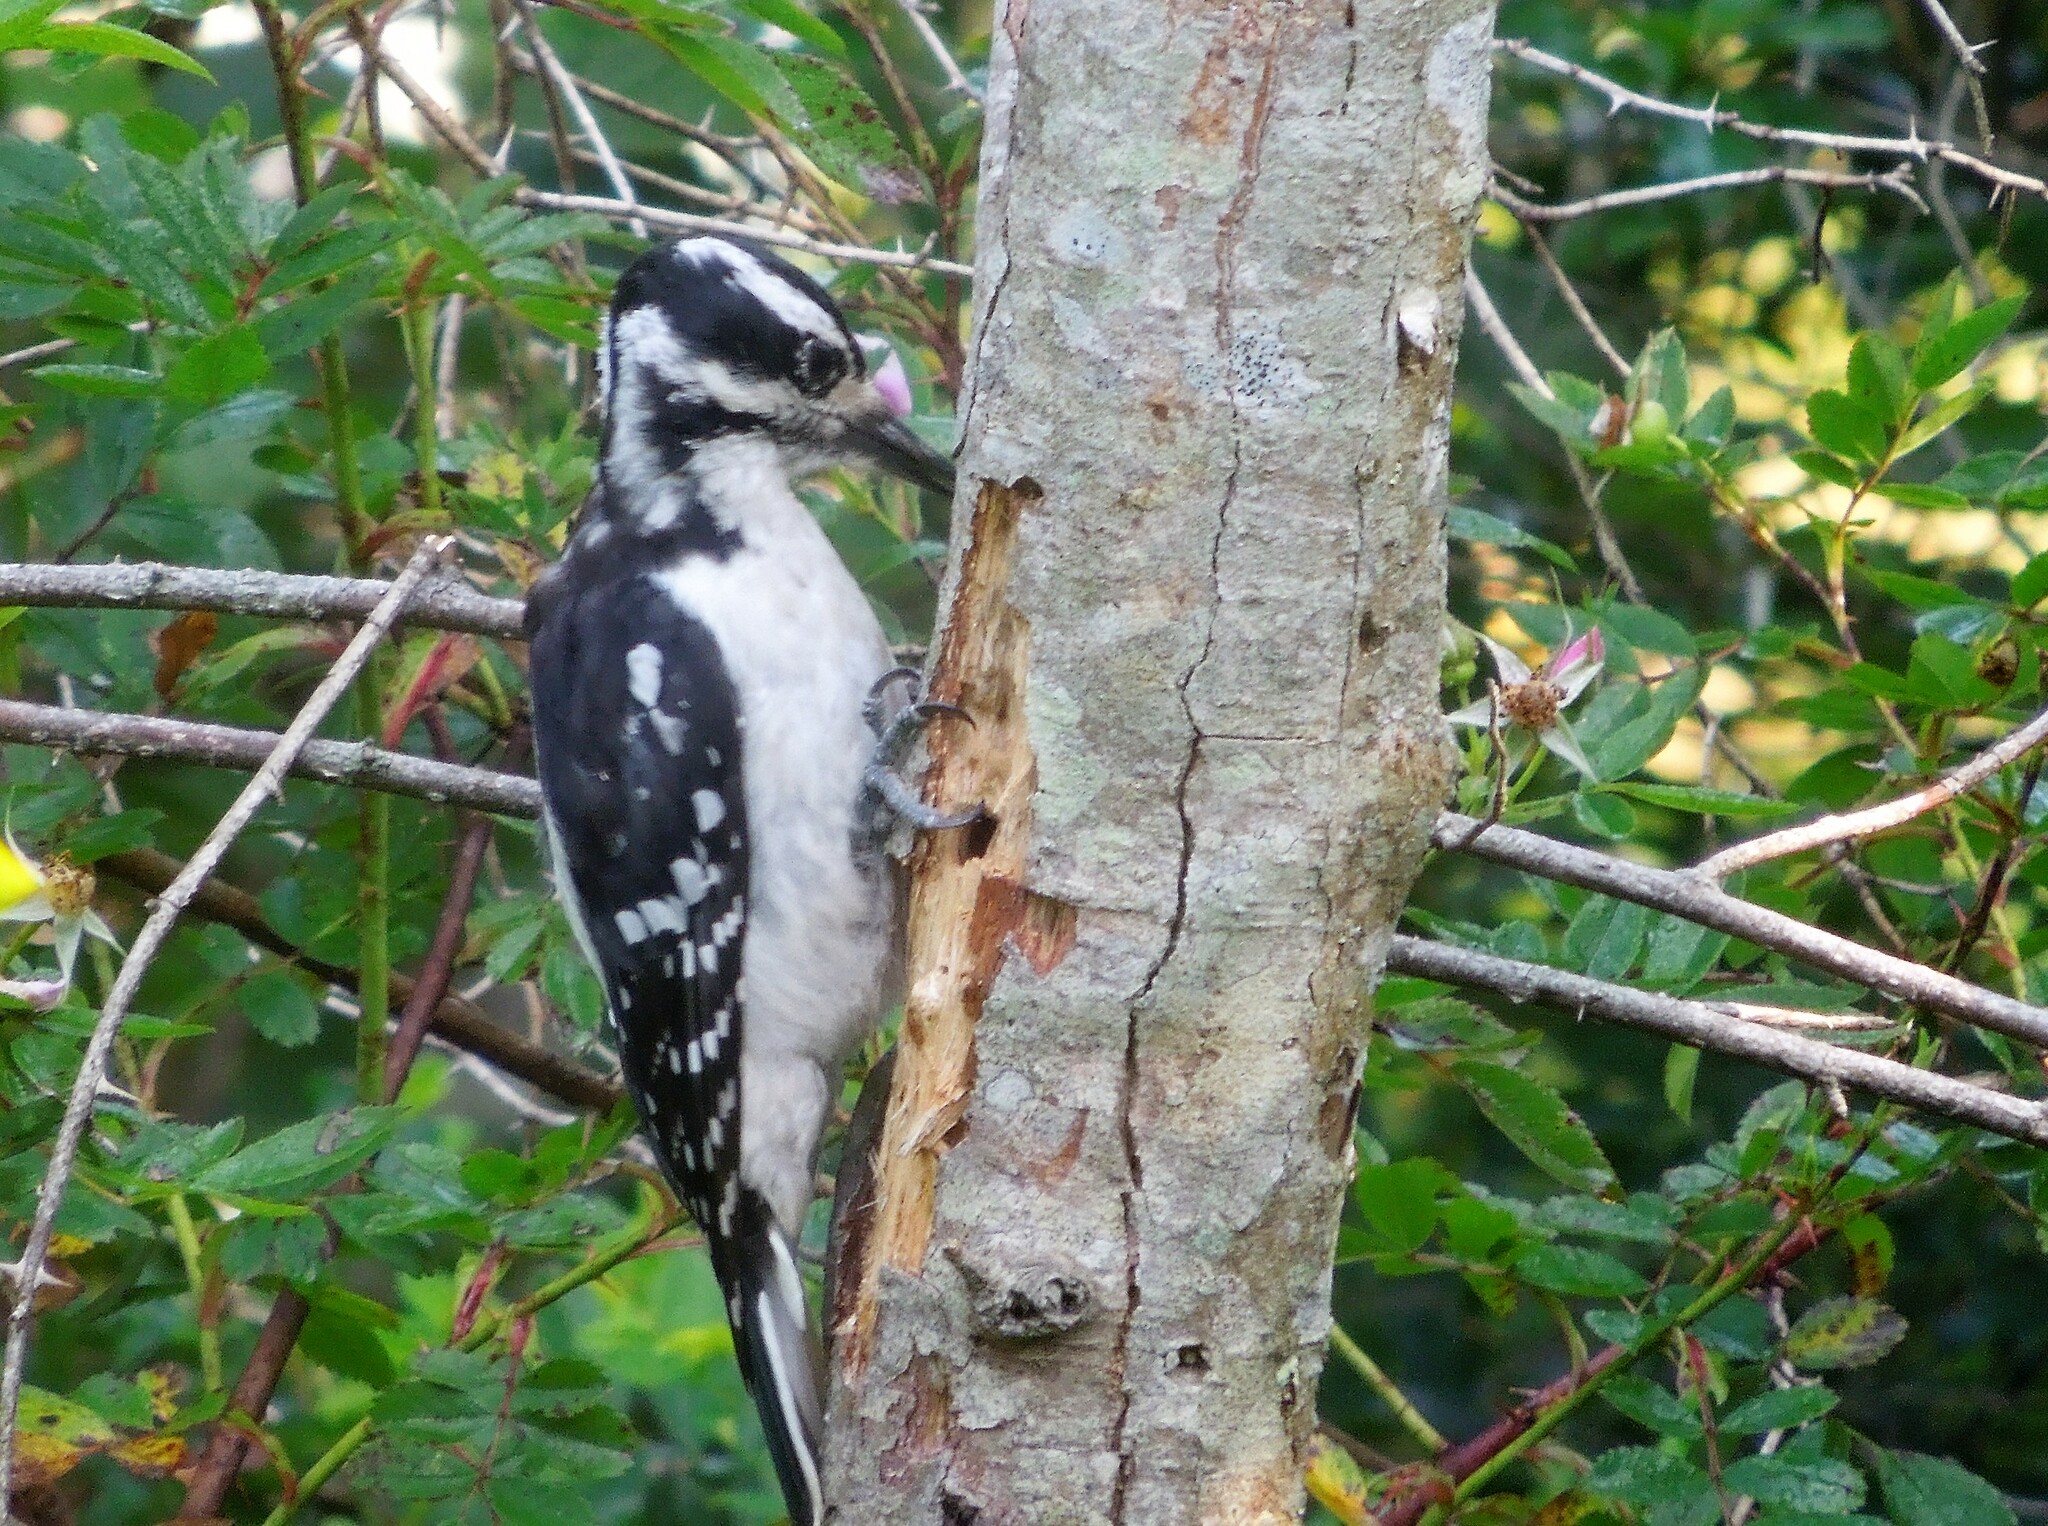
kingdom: Animalia
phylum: Chordata
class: Aves
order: Piciformes
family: Picidae
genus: Leuconotopicus
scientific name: Leuconotopicus villosus
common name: Hairy woodpecker
